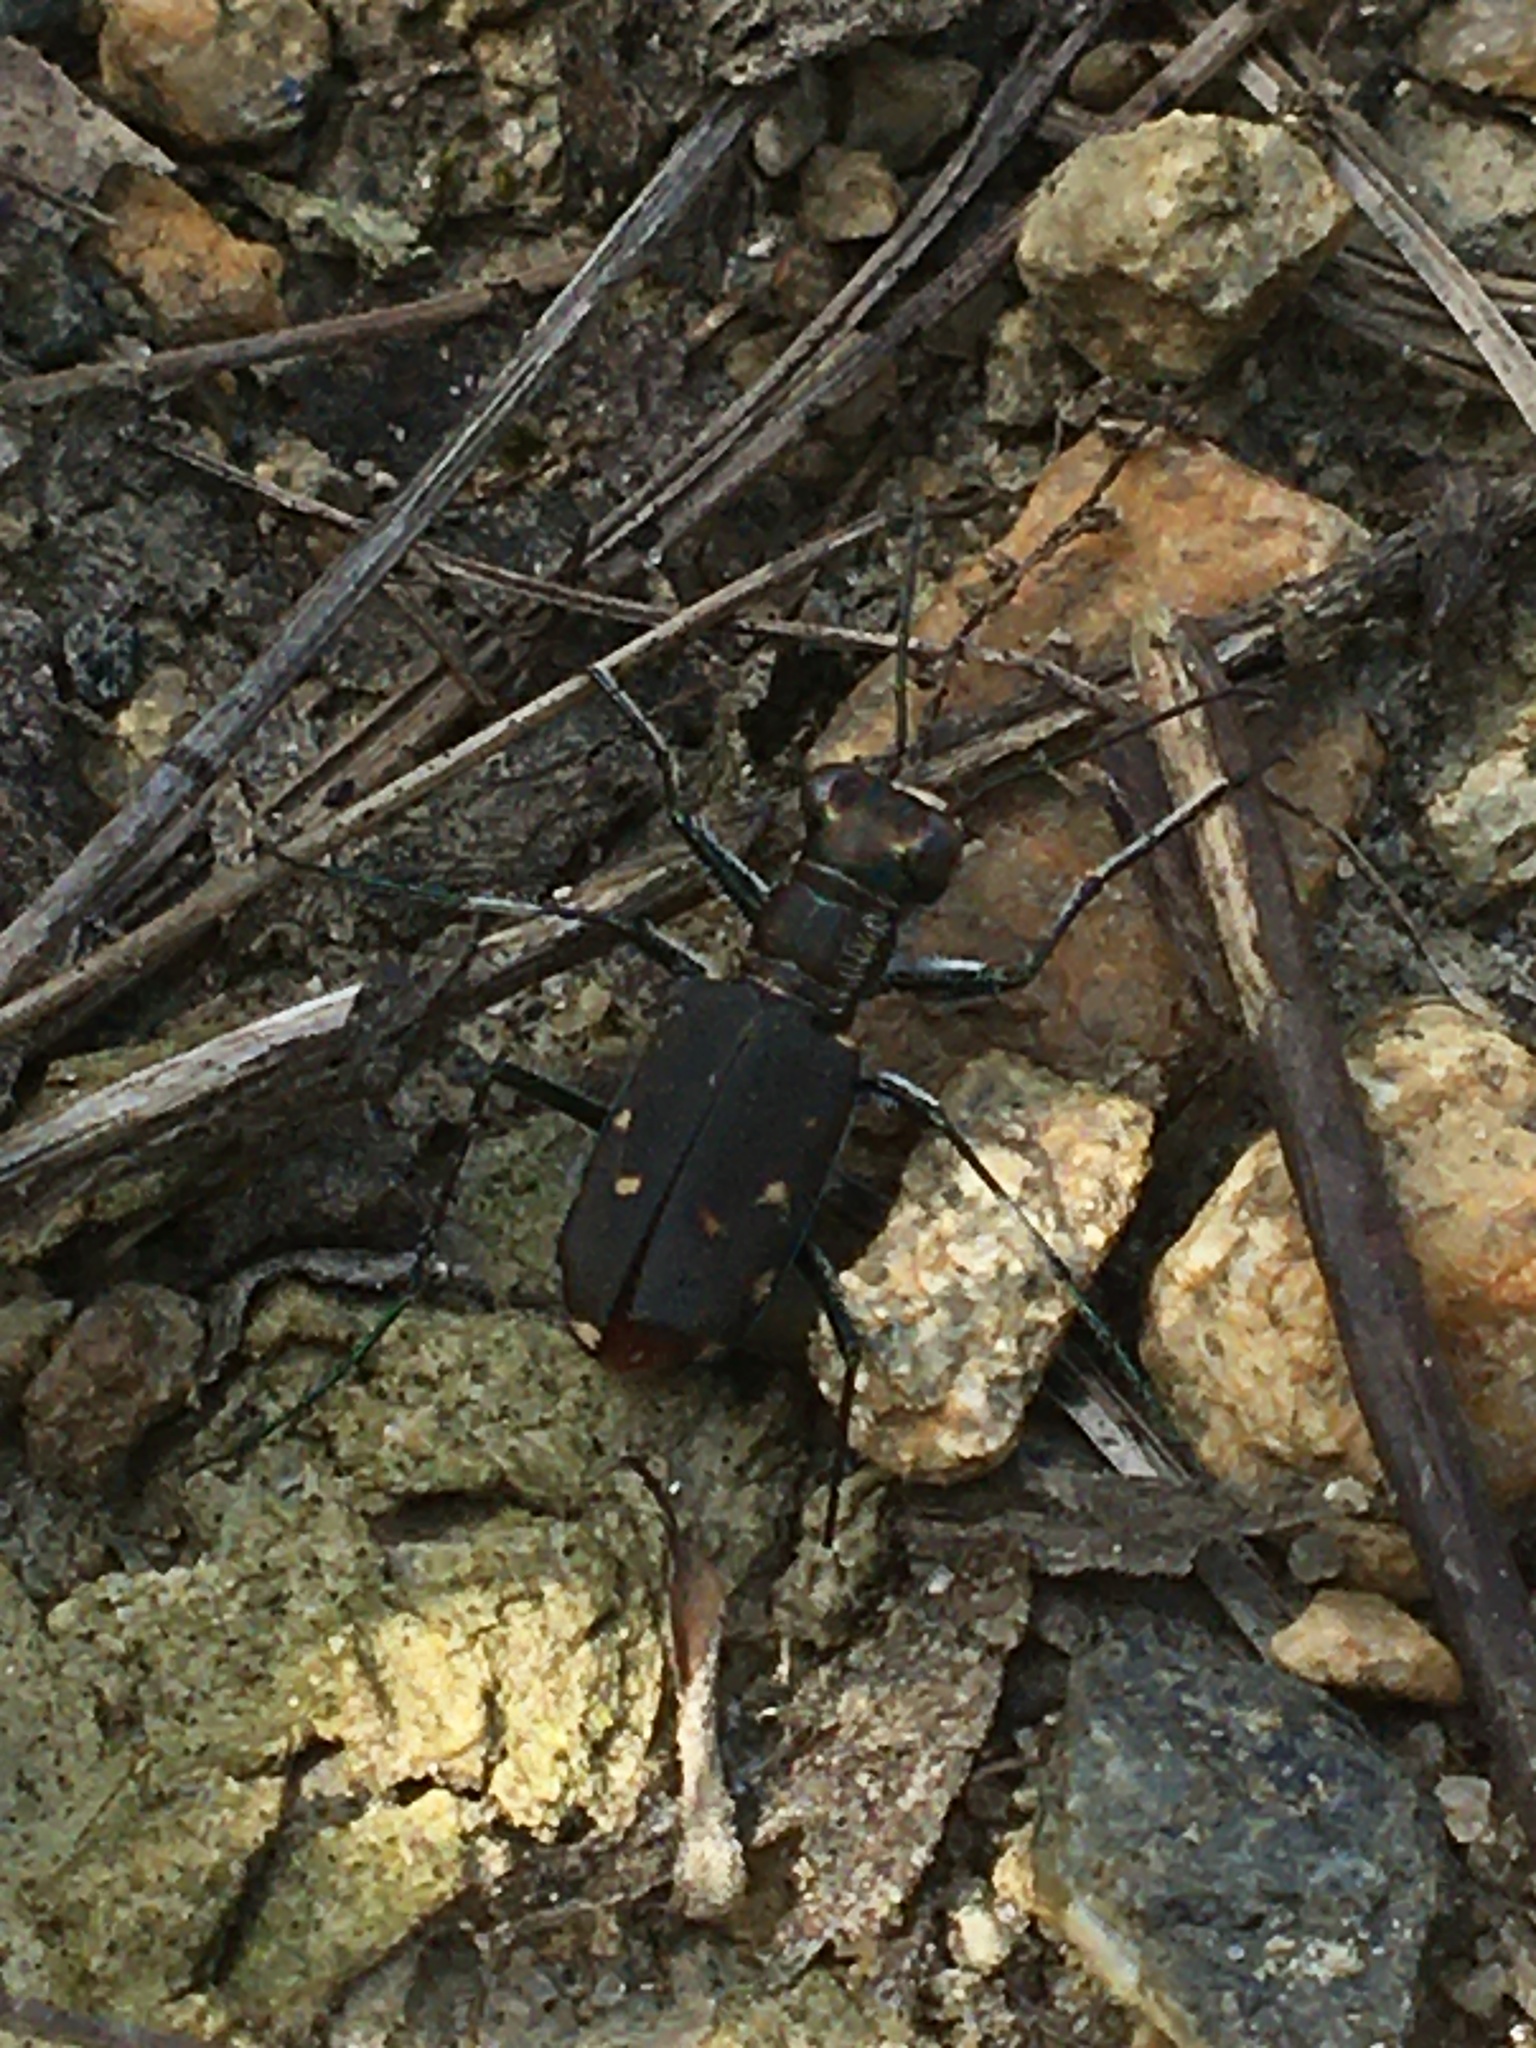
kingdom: Animalia
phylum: Arthropoda
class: Insecta
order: Coleoptera
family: Carabidae
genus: Cicindela
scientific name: Cicindela rufiventris
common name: Eastern red-bellied tiger beetle
